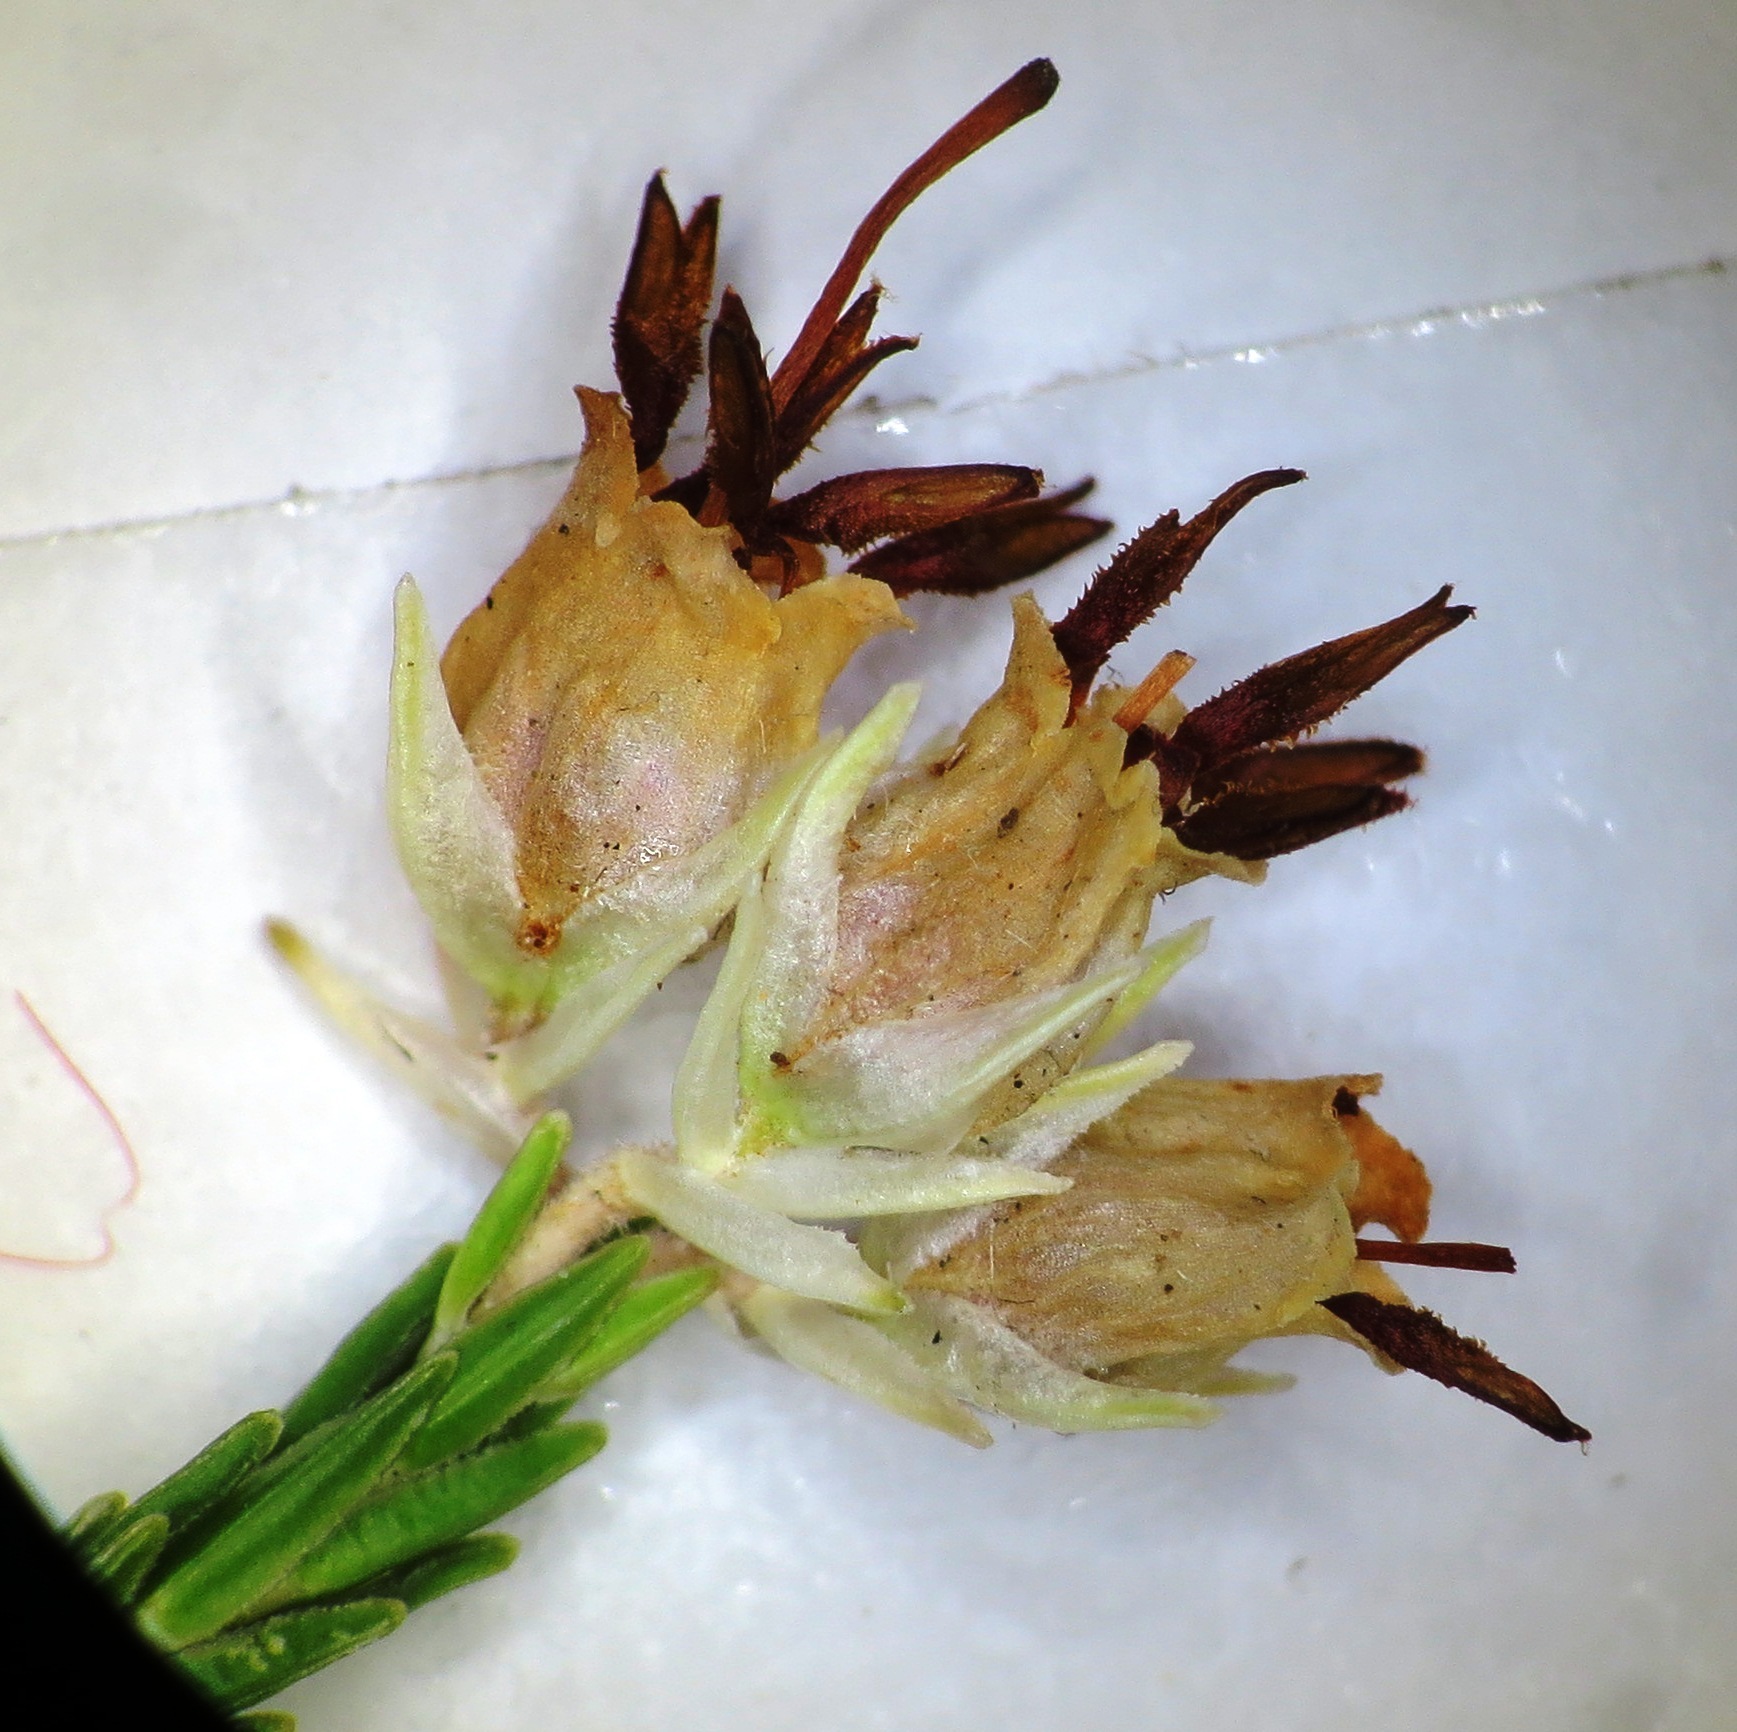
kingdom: Plantae
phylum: Tracheophyta
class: Magnoliopsida
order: Ericales
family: Ericaceae
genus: Erica
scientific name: Erica triceps
